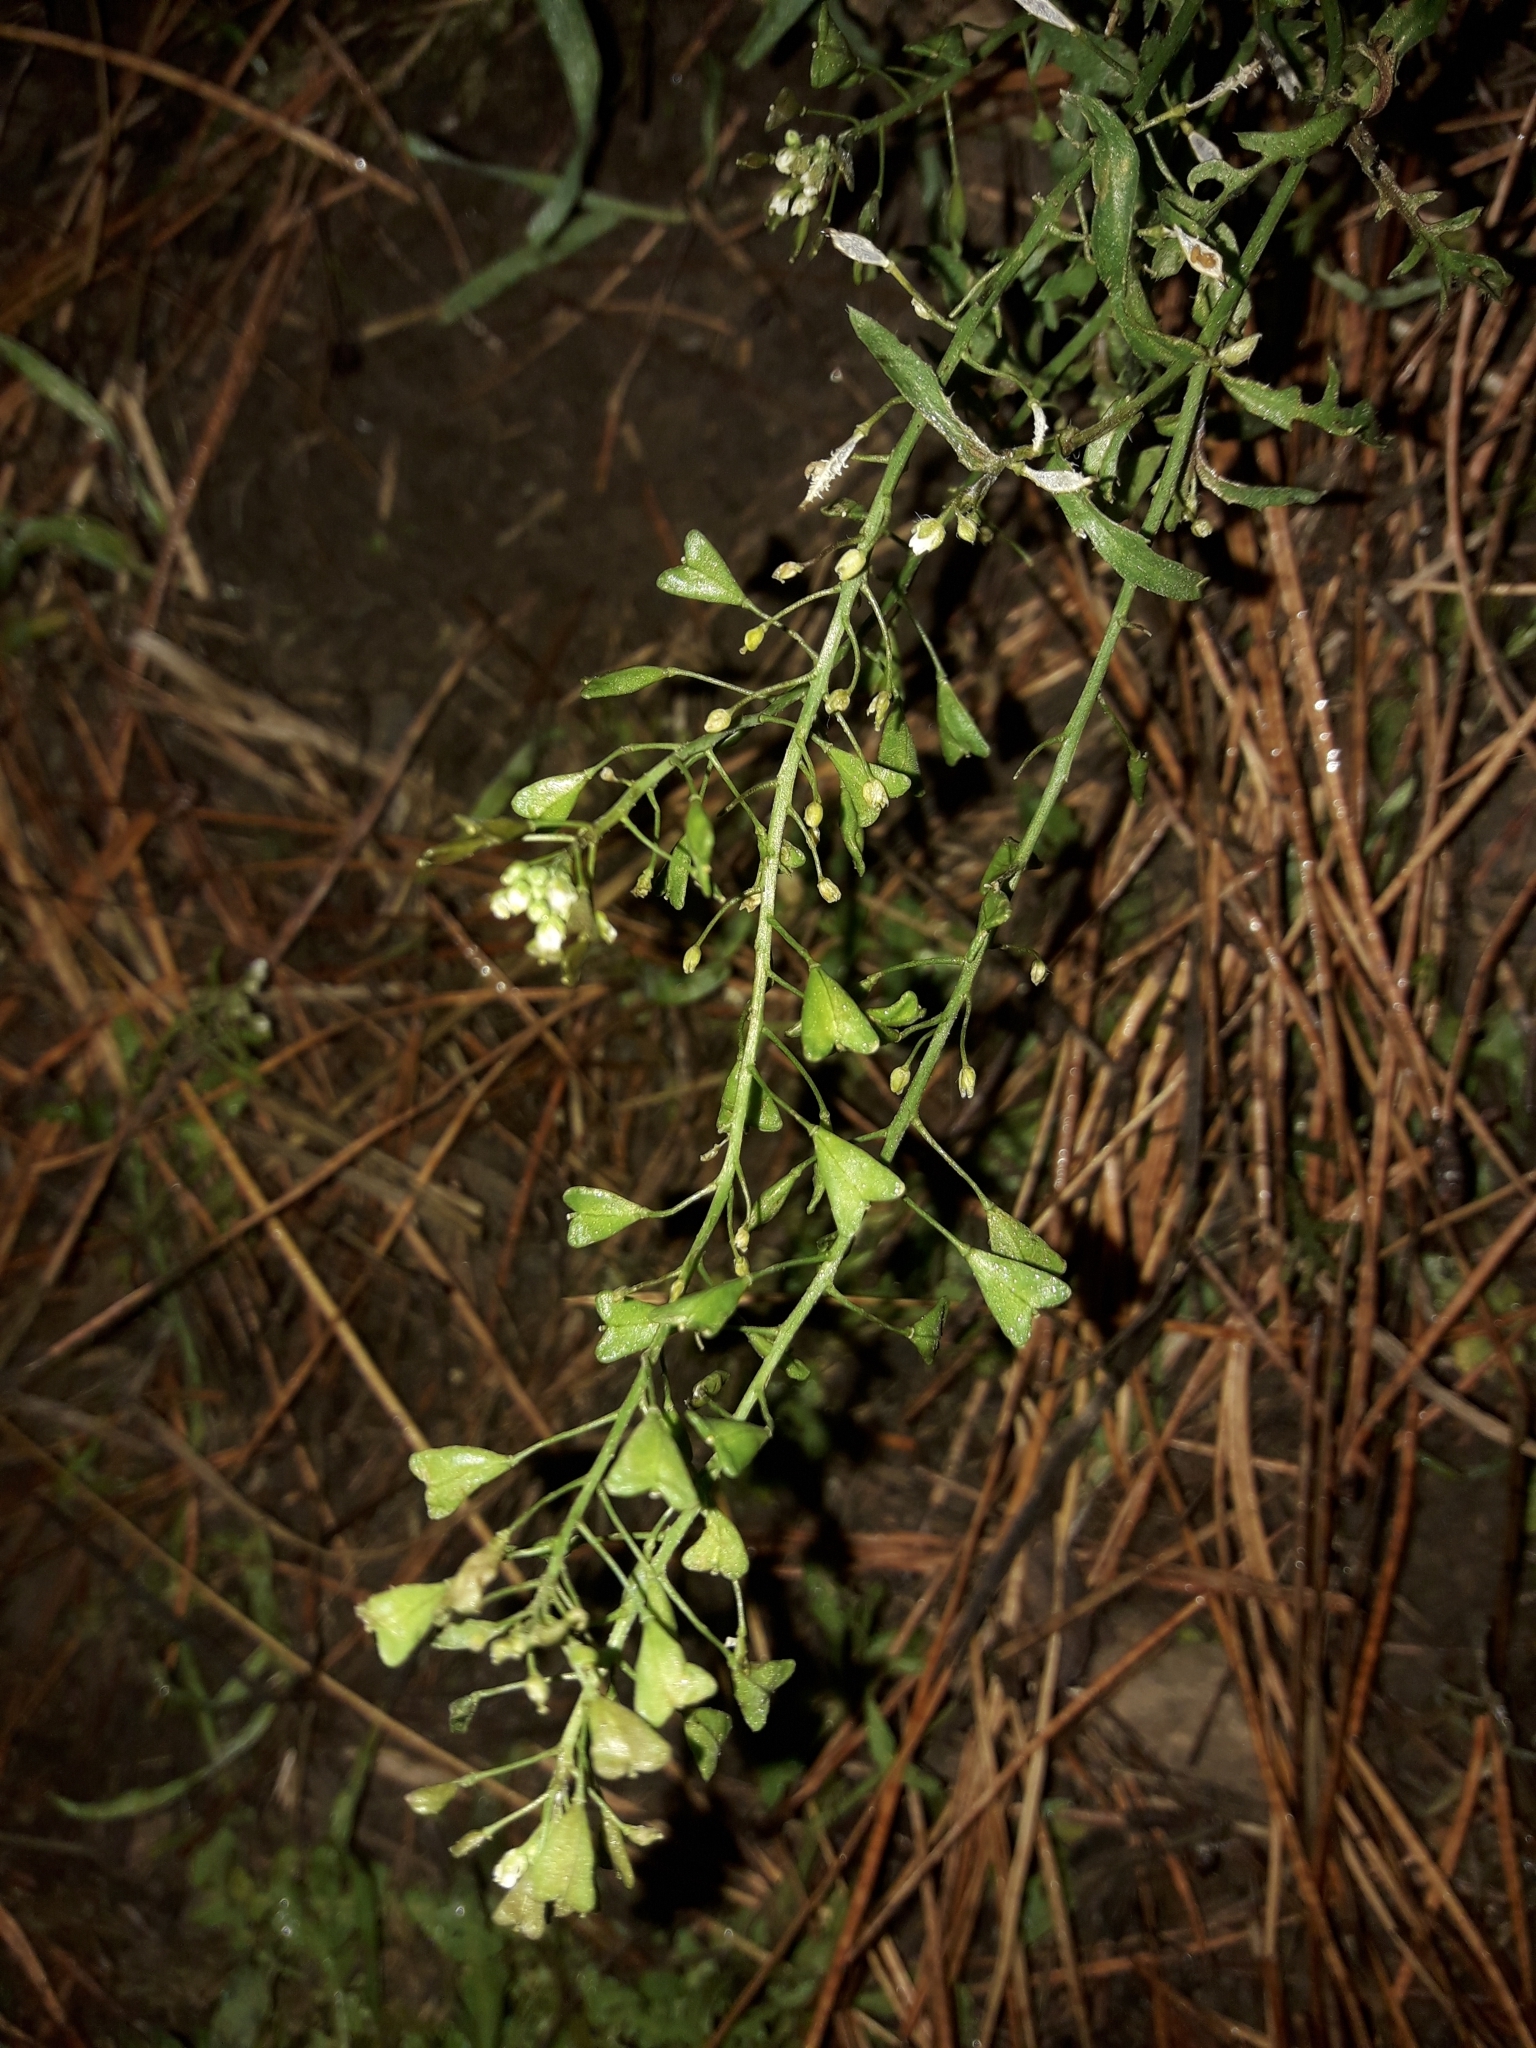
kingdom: Plantae
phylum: Tracheophyta
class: Magnoliopsida
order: Brassicales
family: Brassicaceae
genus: Capsella
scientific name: Capsella bursa-pastoris
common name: Shepherd's purse
